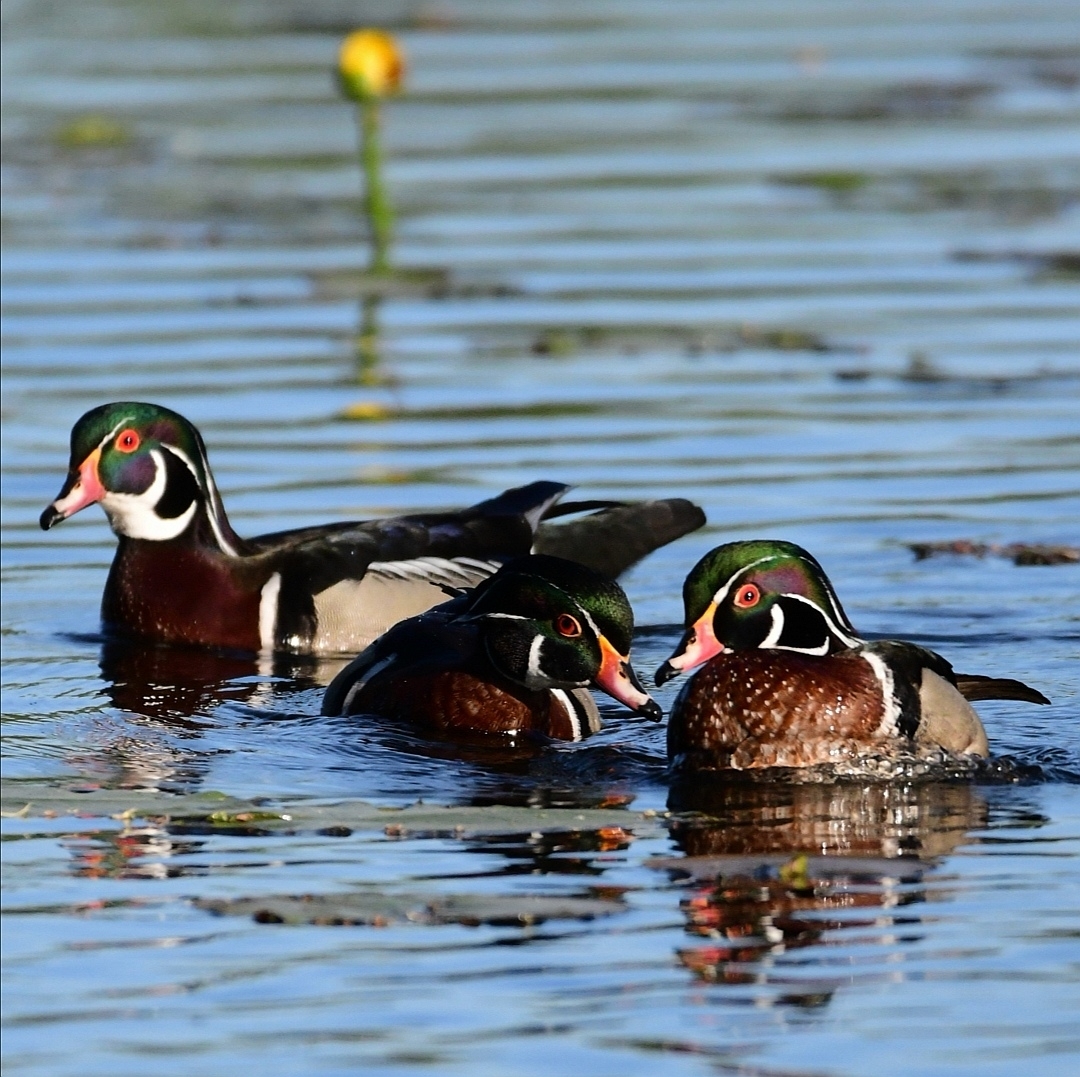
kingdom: Animalia
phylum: Chordata
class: Aves
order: Anseriformes
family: Anatidae
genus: Aix
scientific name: Aix sponsa
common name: Wood duck
